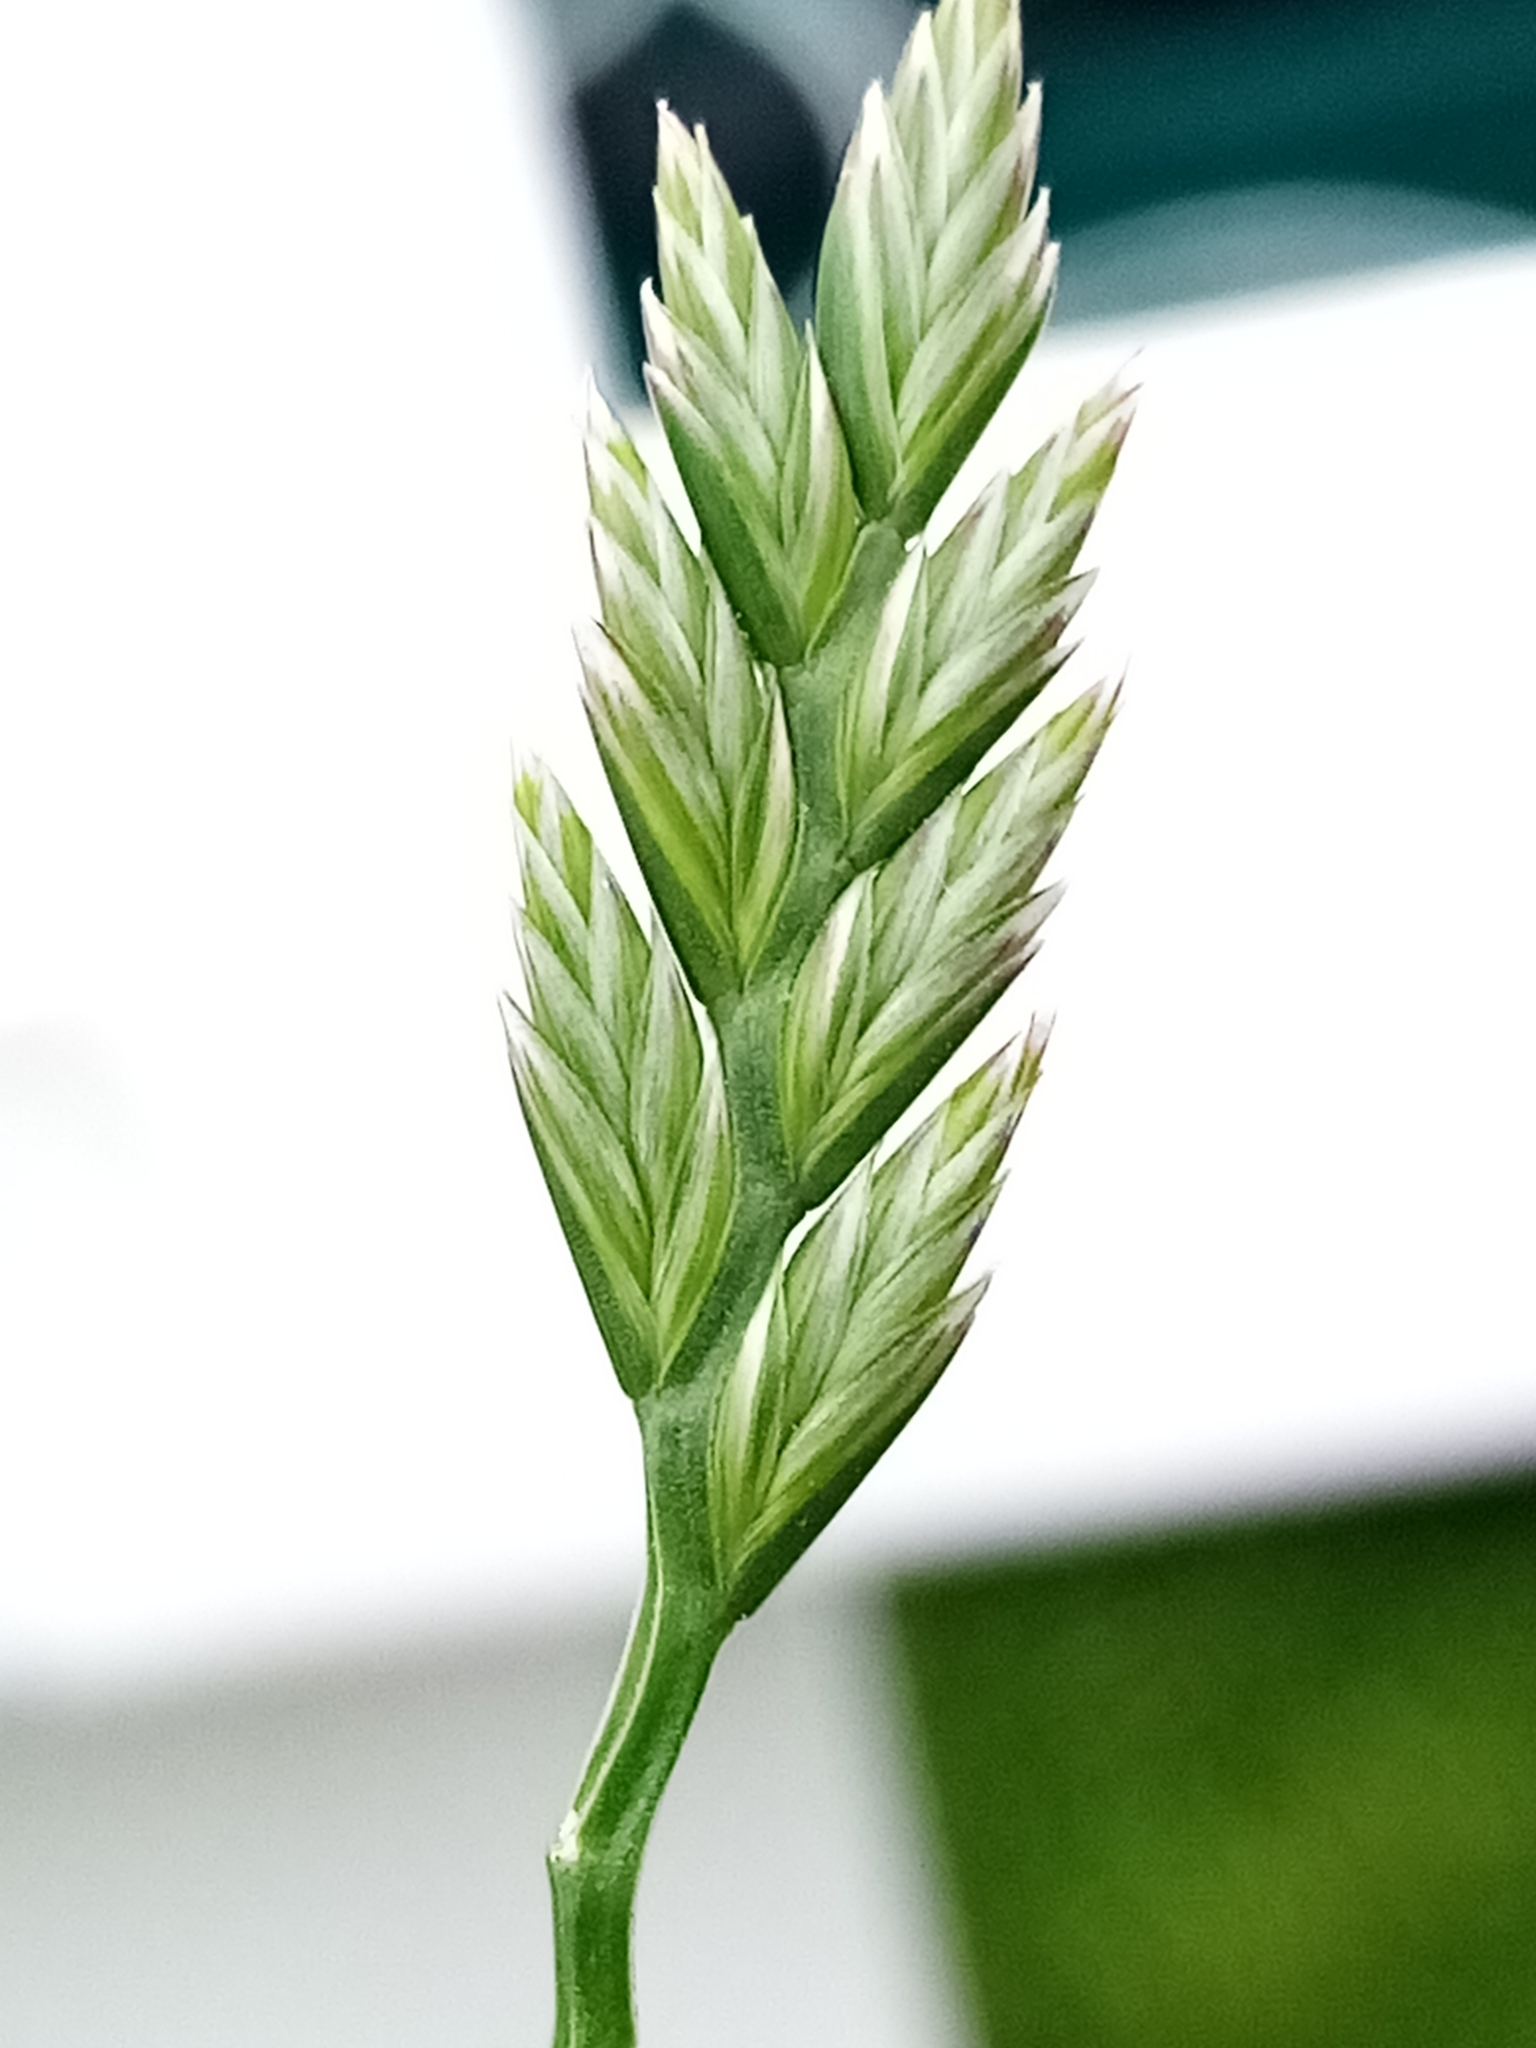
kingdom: Plantae
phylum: Tracheophyta
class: Liliopsida
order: Poales
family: Poaceae
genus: Lolium
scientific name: Lolium perenne
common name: Perennial ryegrass
